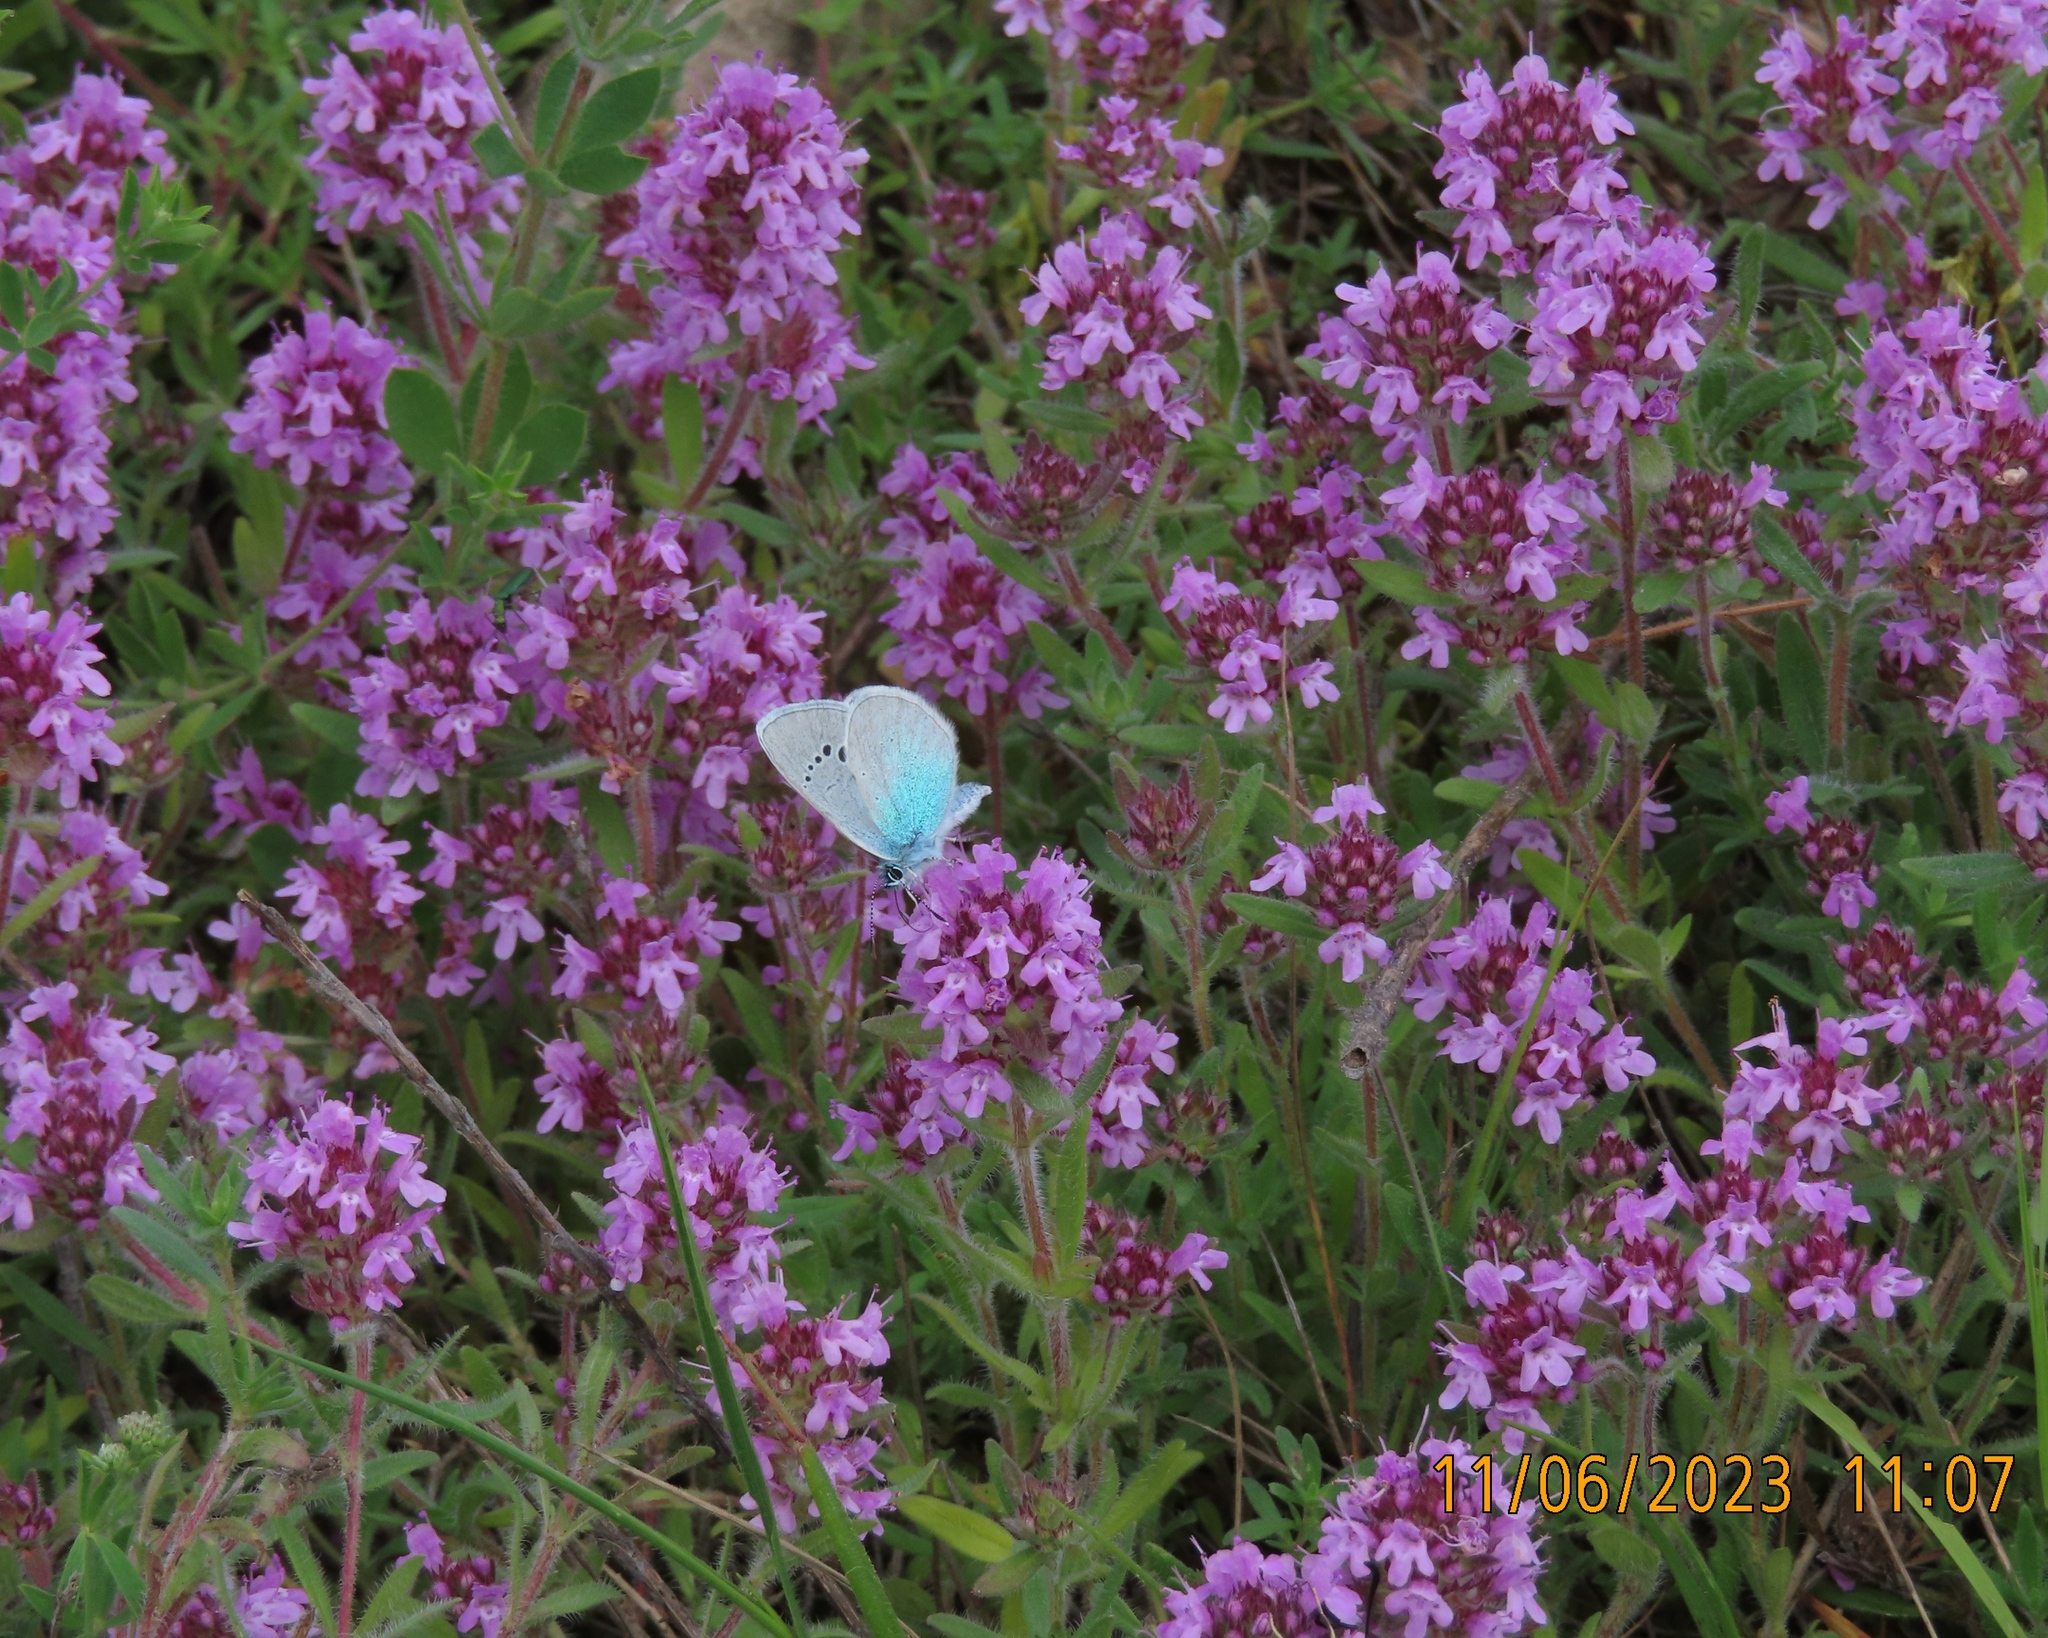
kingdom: Animalia
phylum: Arthropoda
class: Insecta
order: Lepidoptera
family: Lycaenidae
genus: Glaucopsyche
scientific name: Glaucopsyche alexis
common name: Green-underside blue
